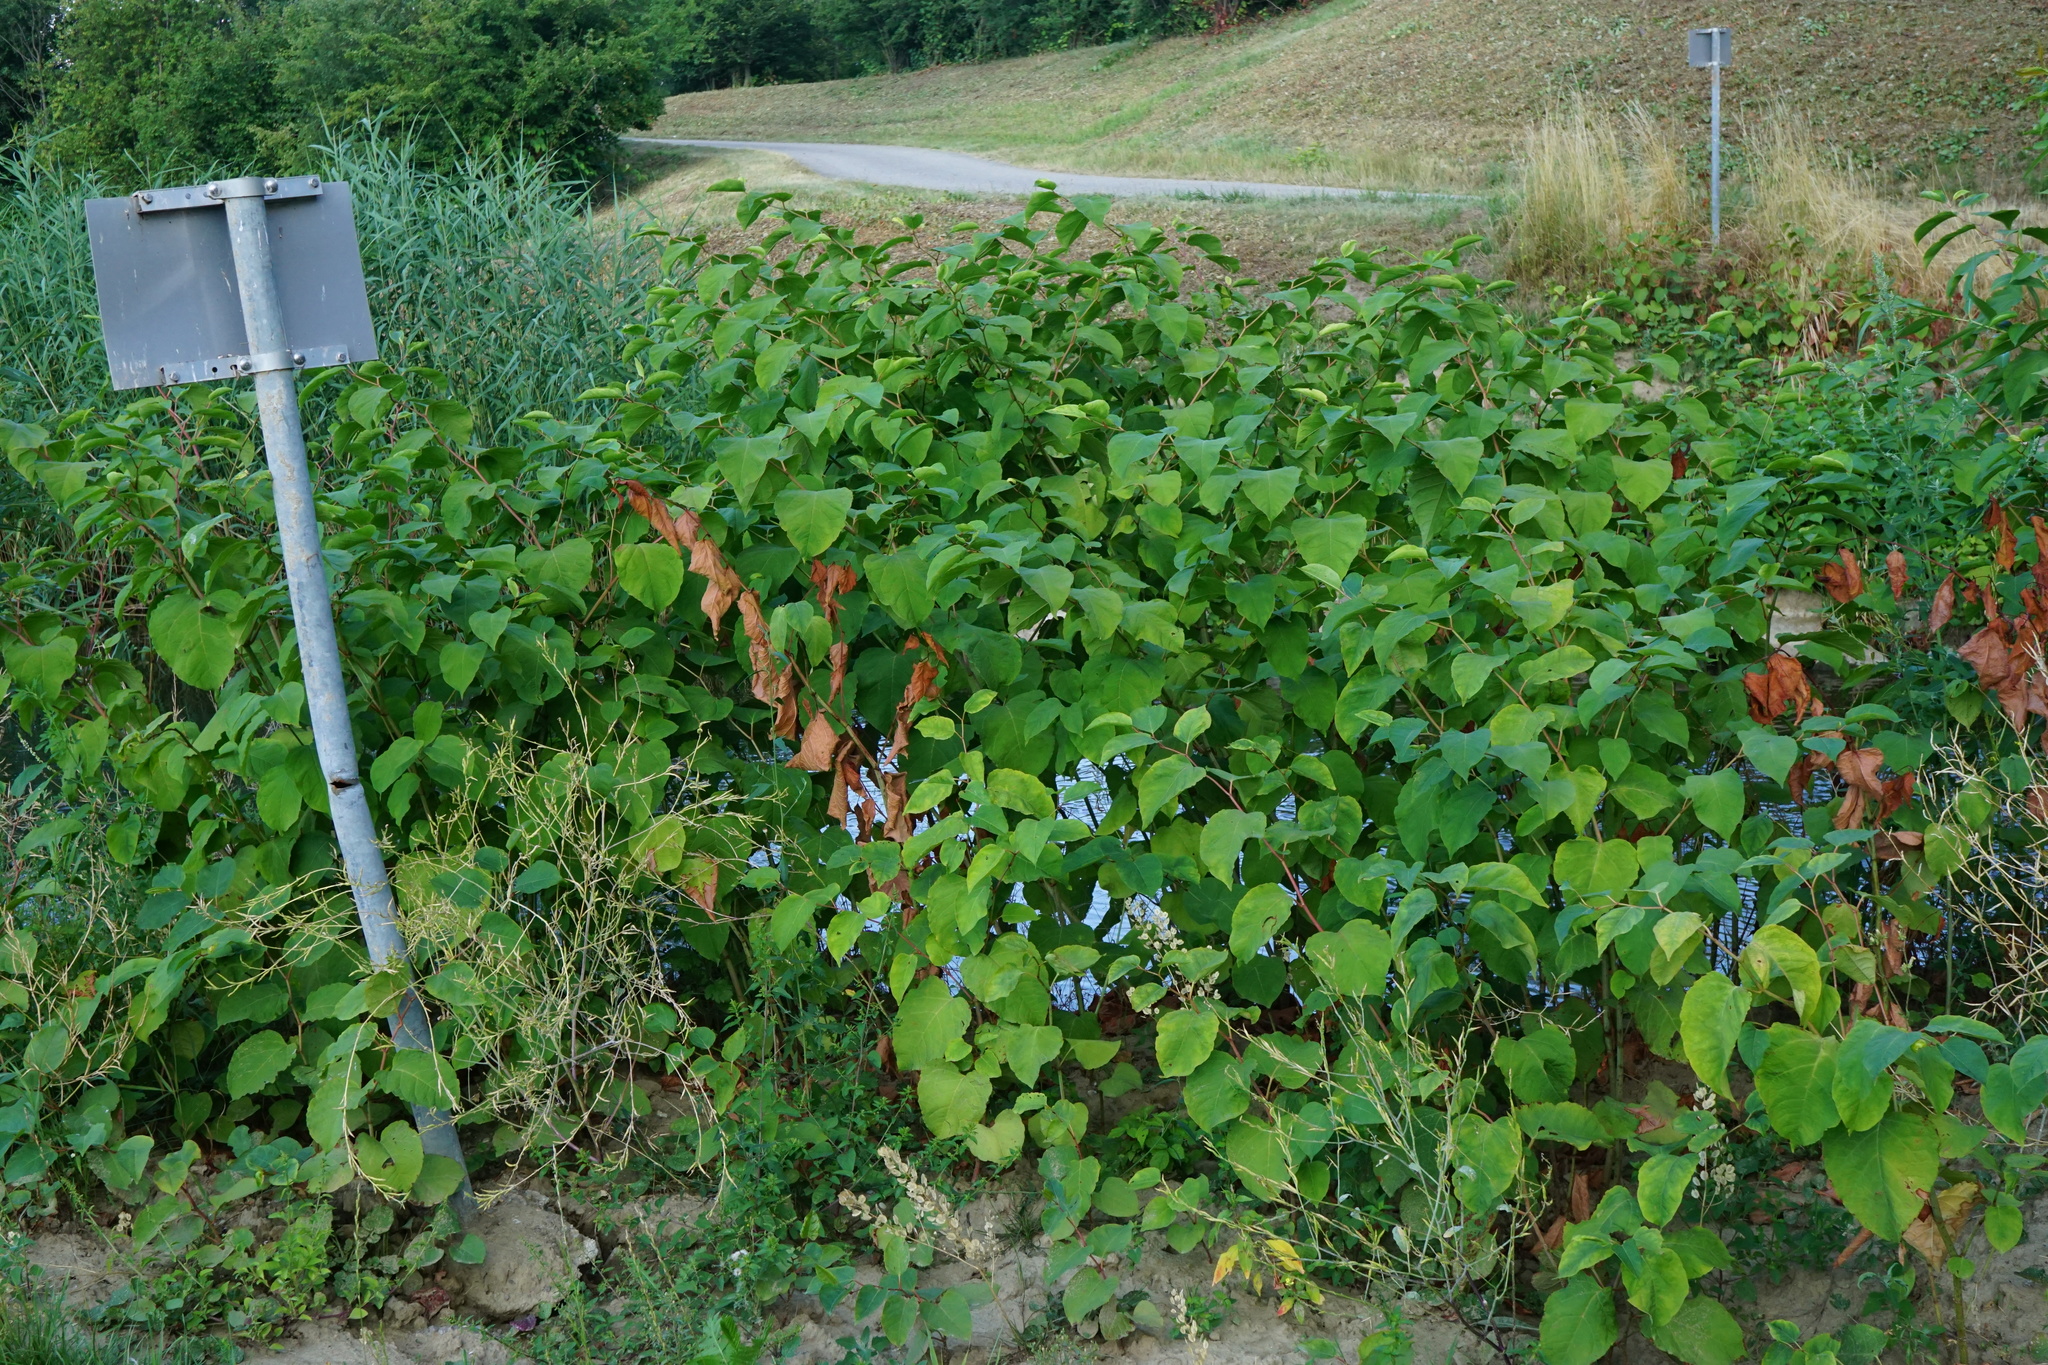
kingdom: Plantae
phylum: Tracheophyta
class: Magnoliopsida
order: Caryophyllales
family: Polygonaceae
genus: Reynoutria
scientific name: Reynoutria bohemica
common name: Bohemian knotweed
